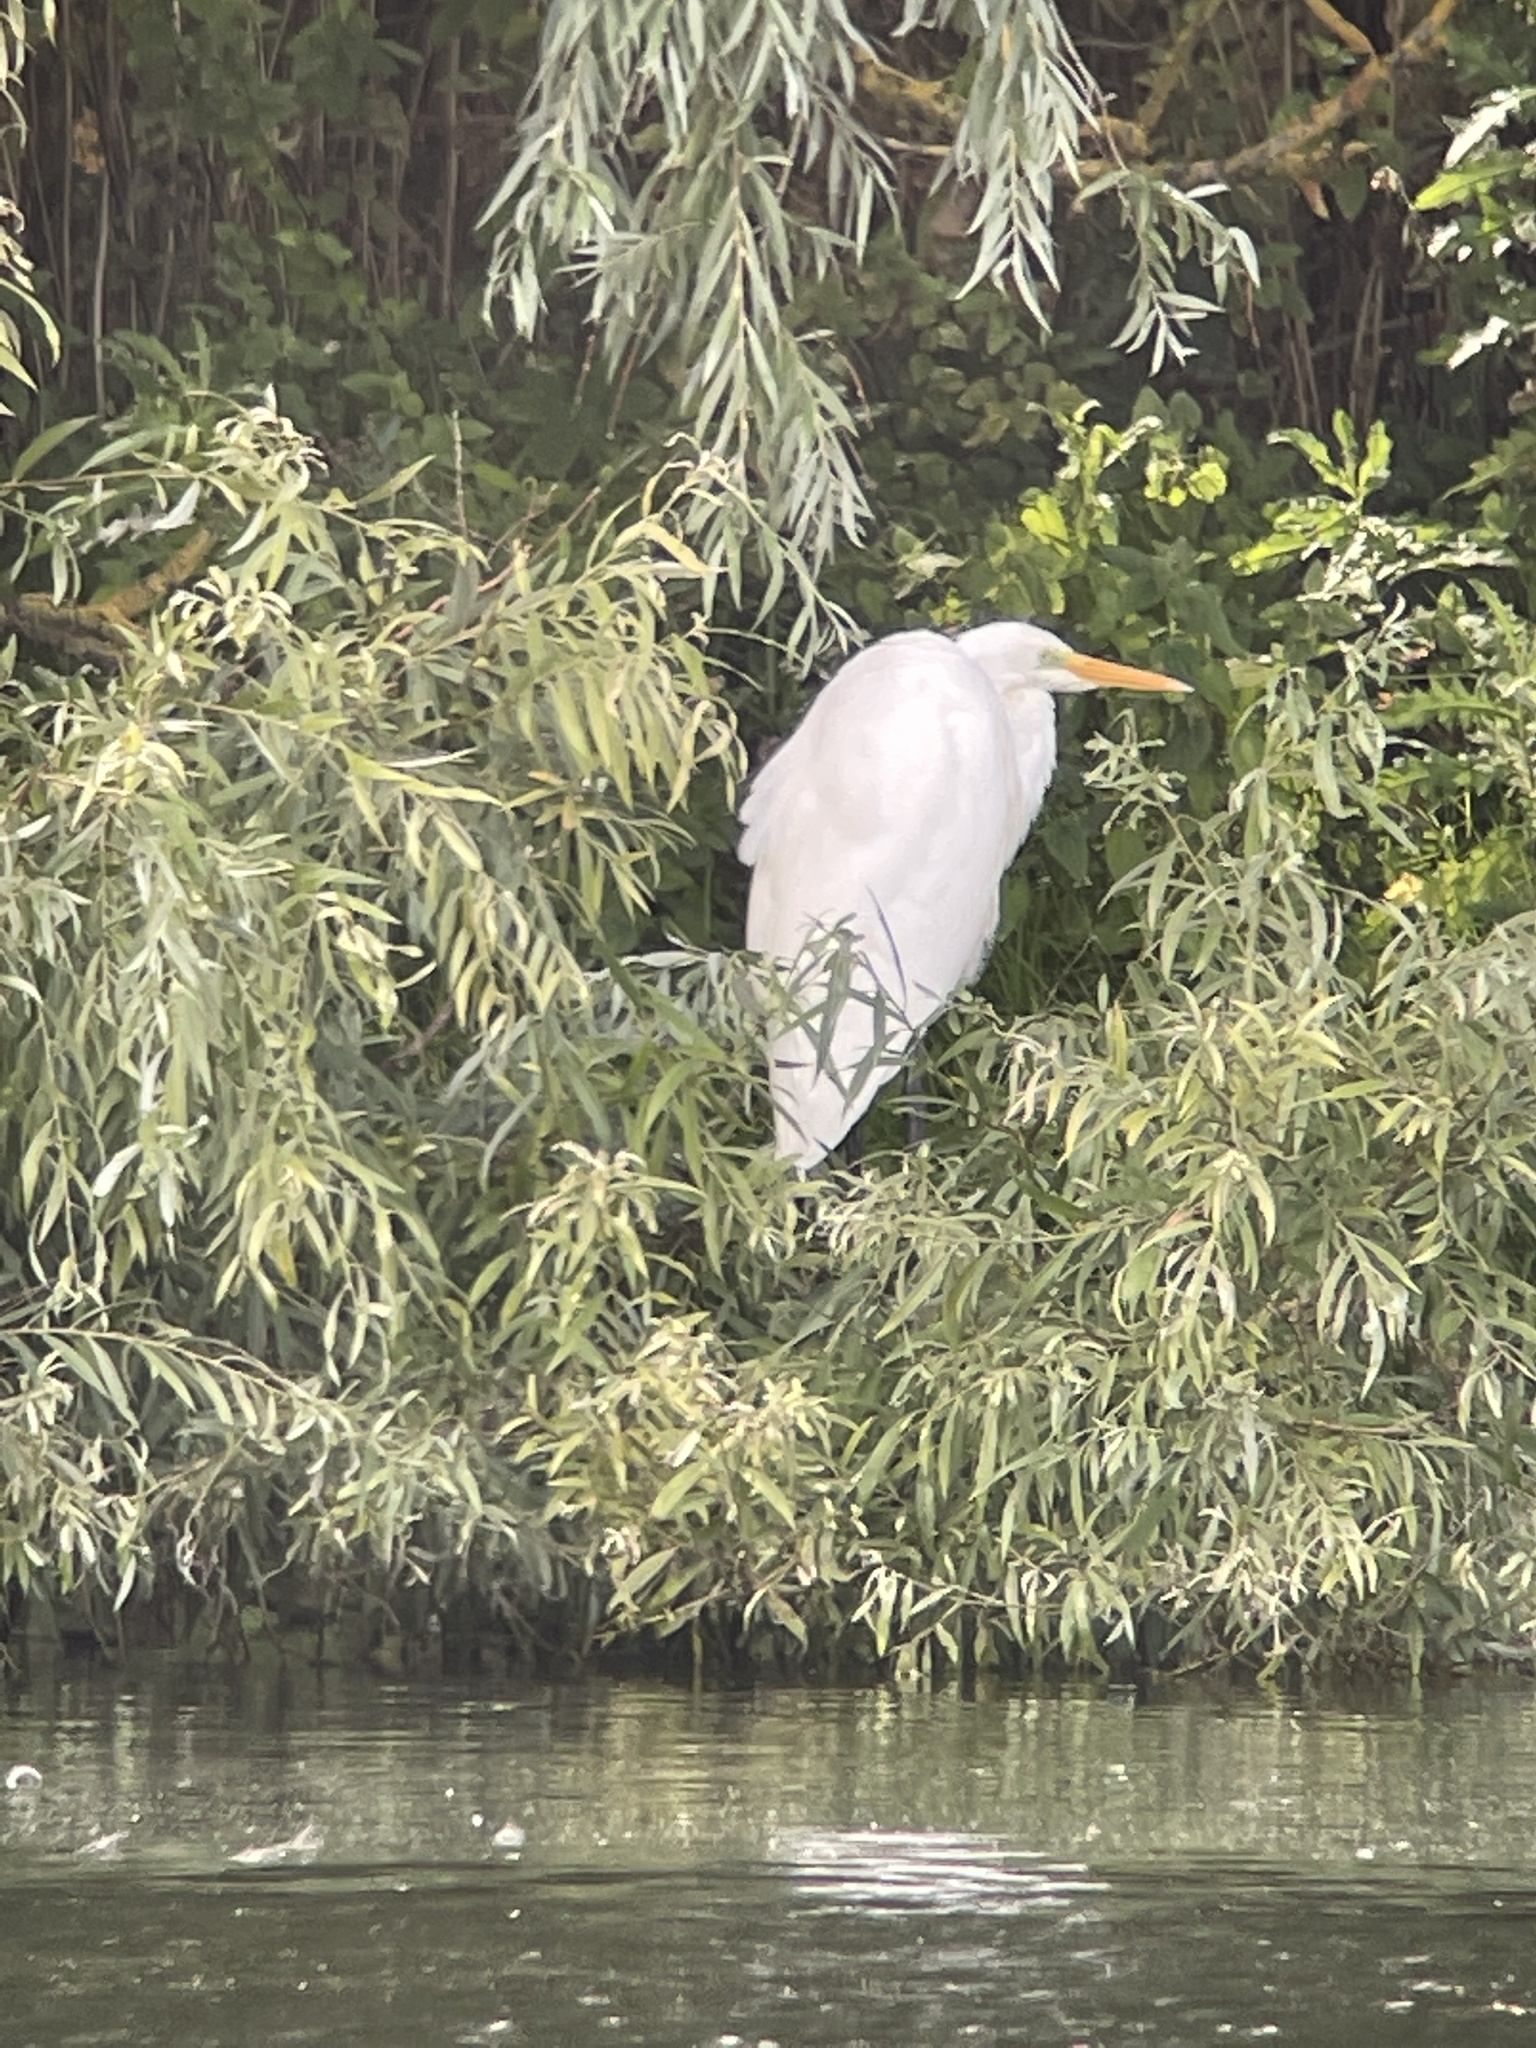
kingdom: Animalia
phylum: Chordata
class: Aves
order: Pelecaniformes
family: Ardeidae
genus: Ardea
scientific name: Ardea alba
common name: Great egret
